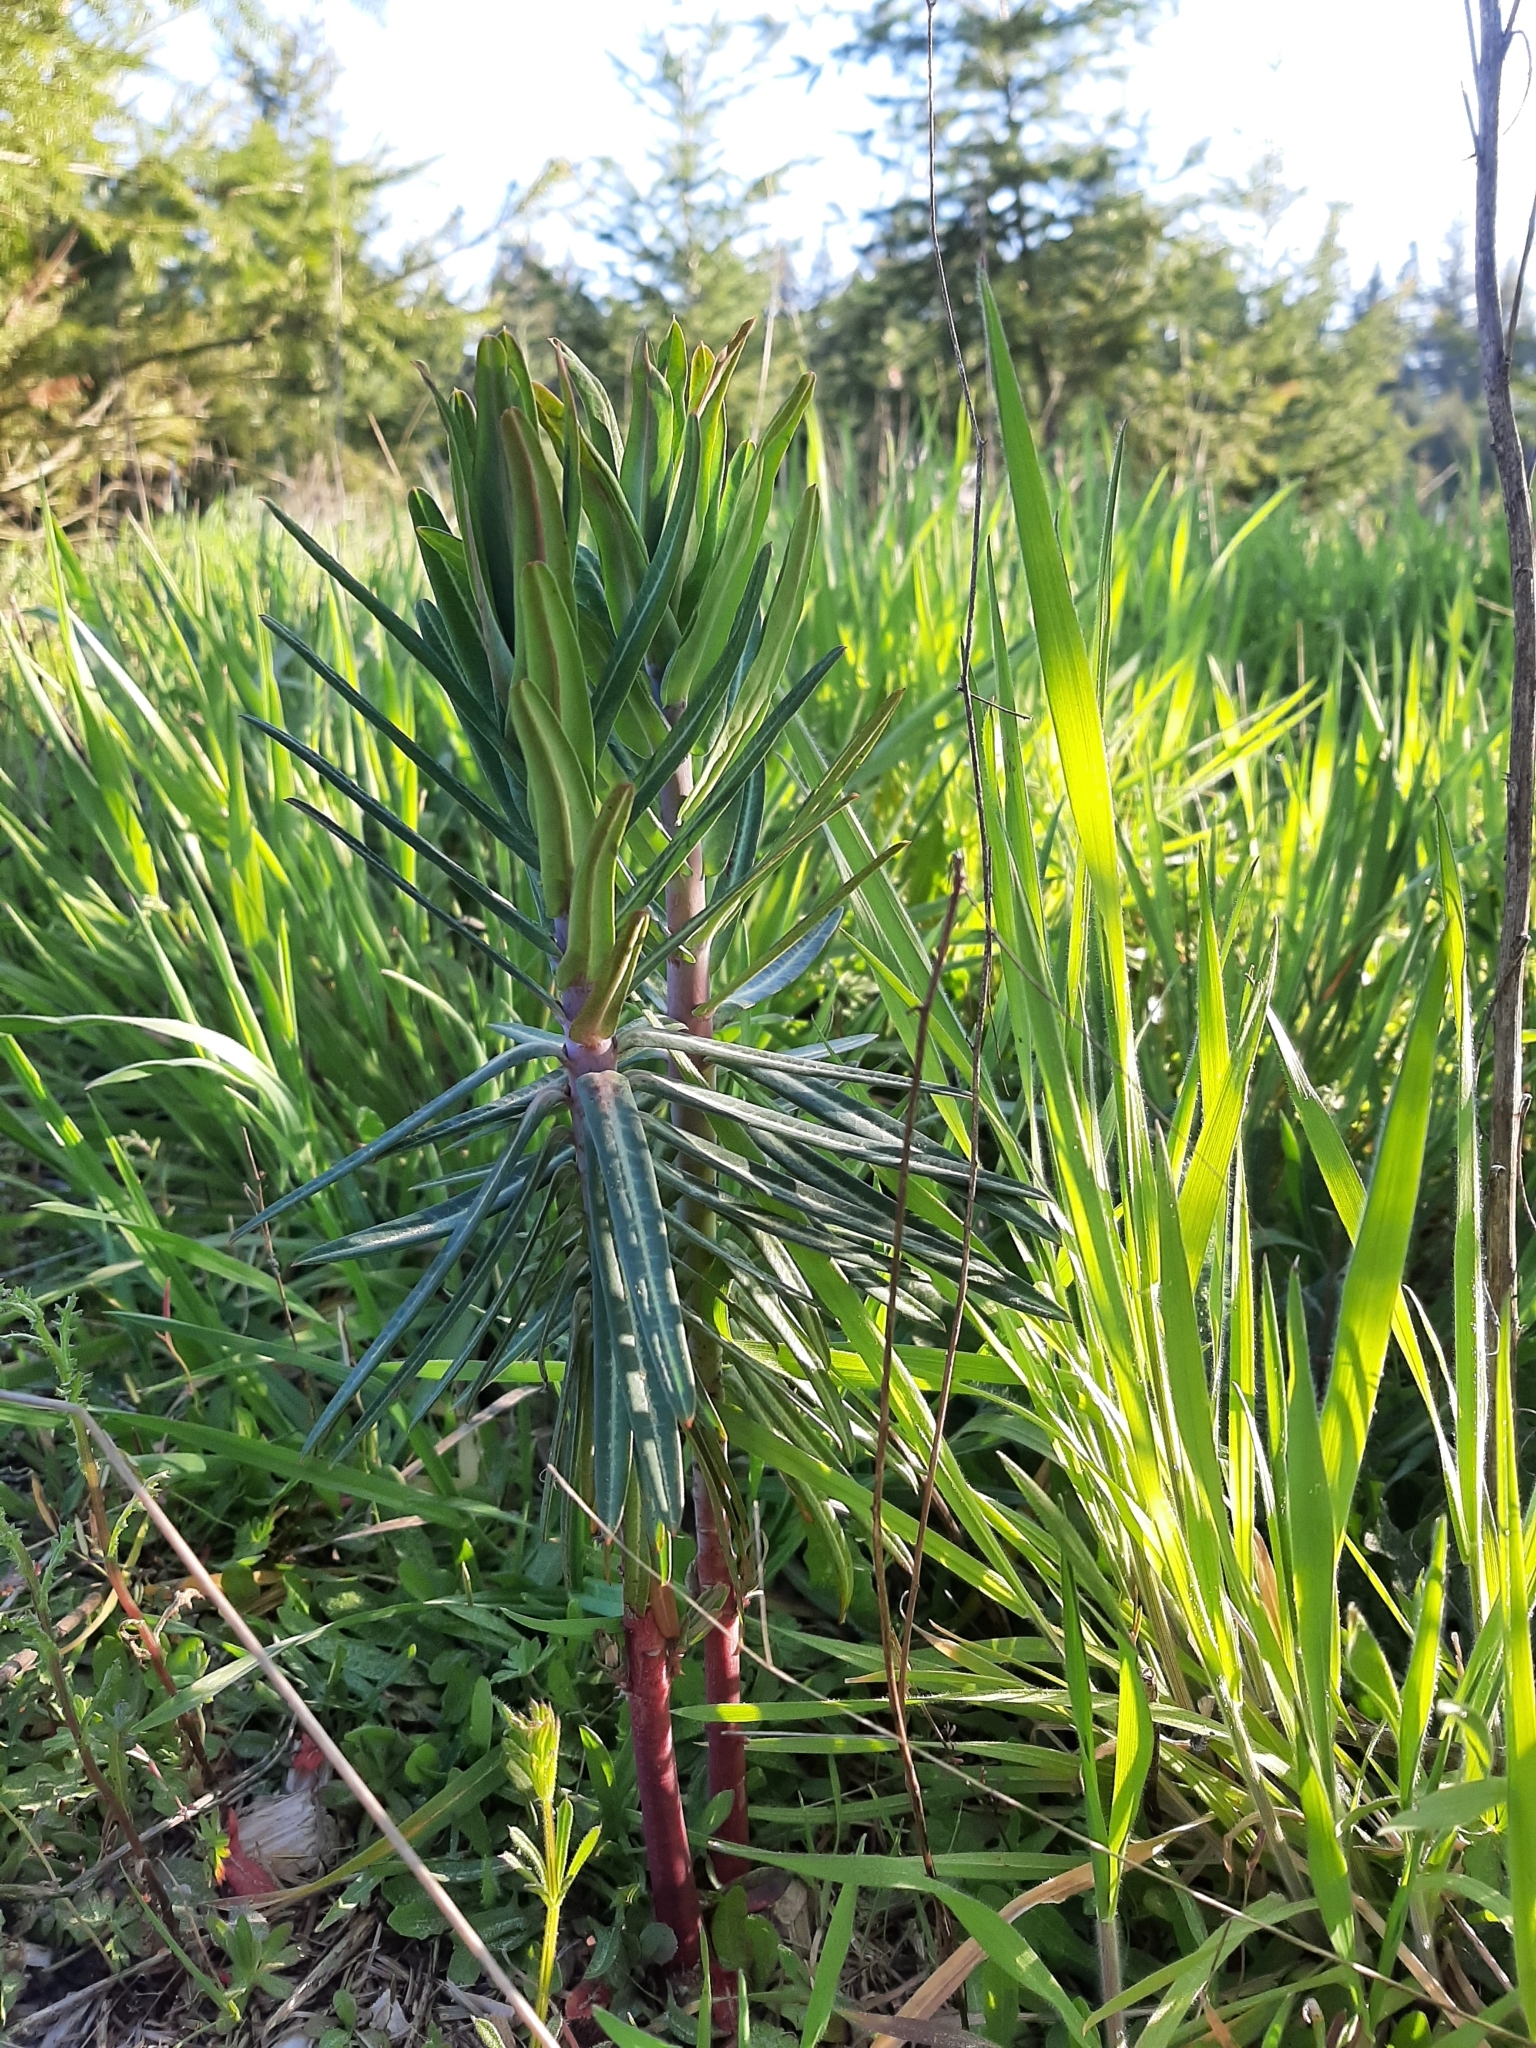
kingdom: Plantae
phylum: Tracheophyta
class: Magnoliopsida
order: Malpighiales
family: Euphorbiaceae
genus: Euphorbia
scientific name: Euphorbia lathyris
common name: Caper spurge
